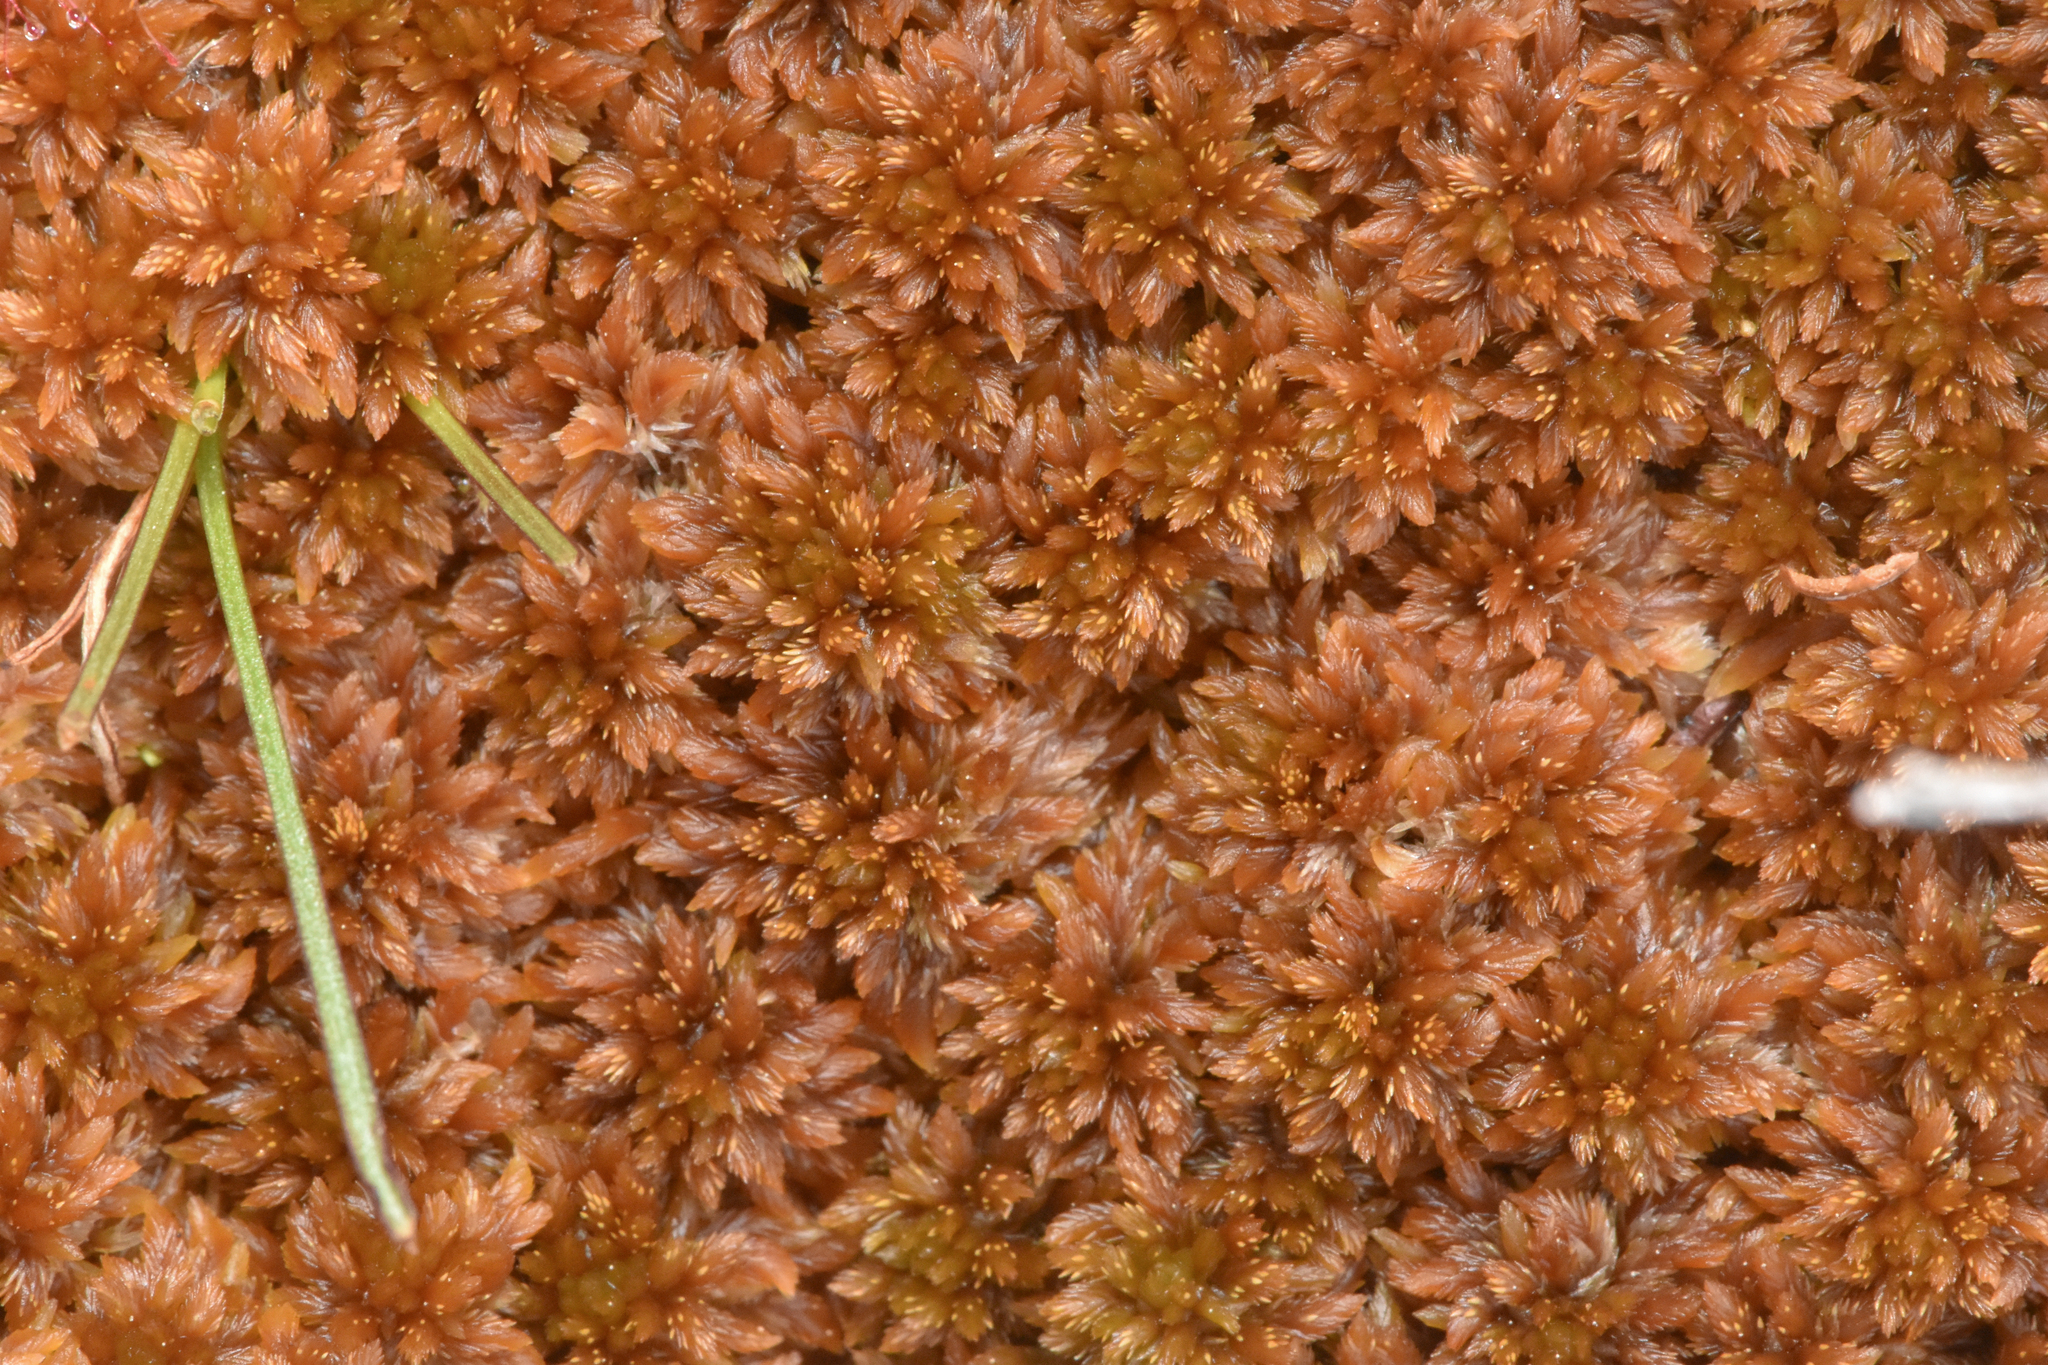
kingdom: Plantae
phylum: Bryophyta
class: Sphagnopsida
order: Sphagnales
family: Sphagnaceae
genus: Sphagnum
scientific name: Sphagnum fuscum
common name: Brown peat moss
